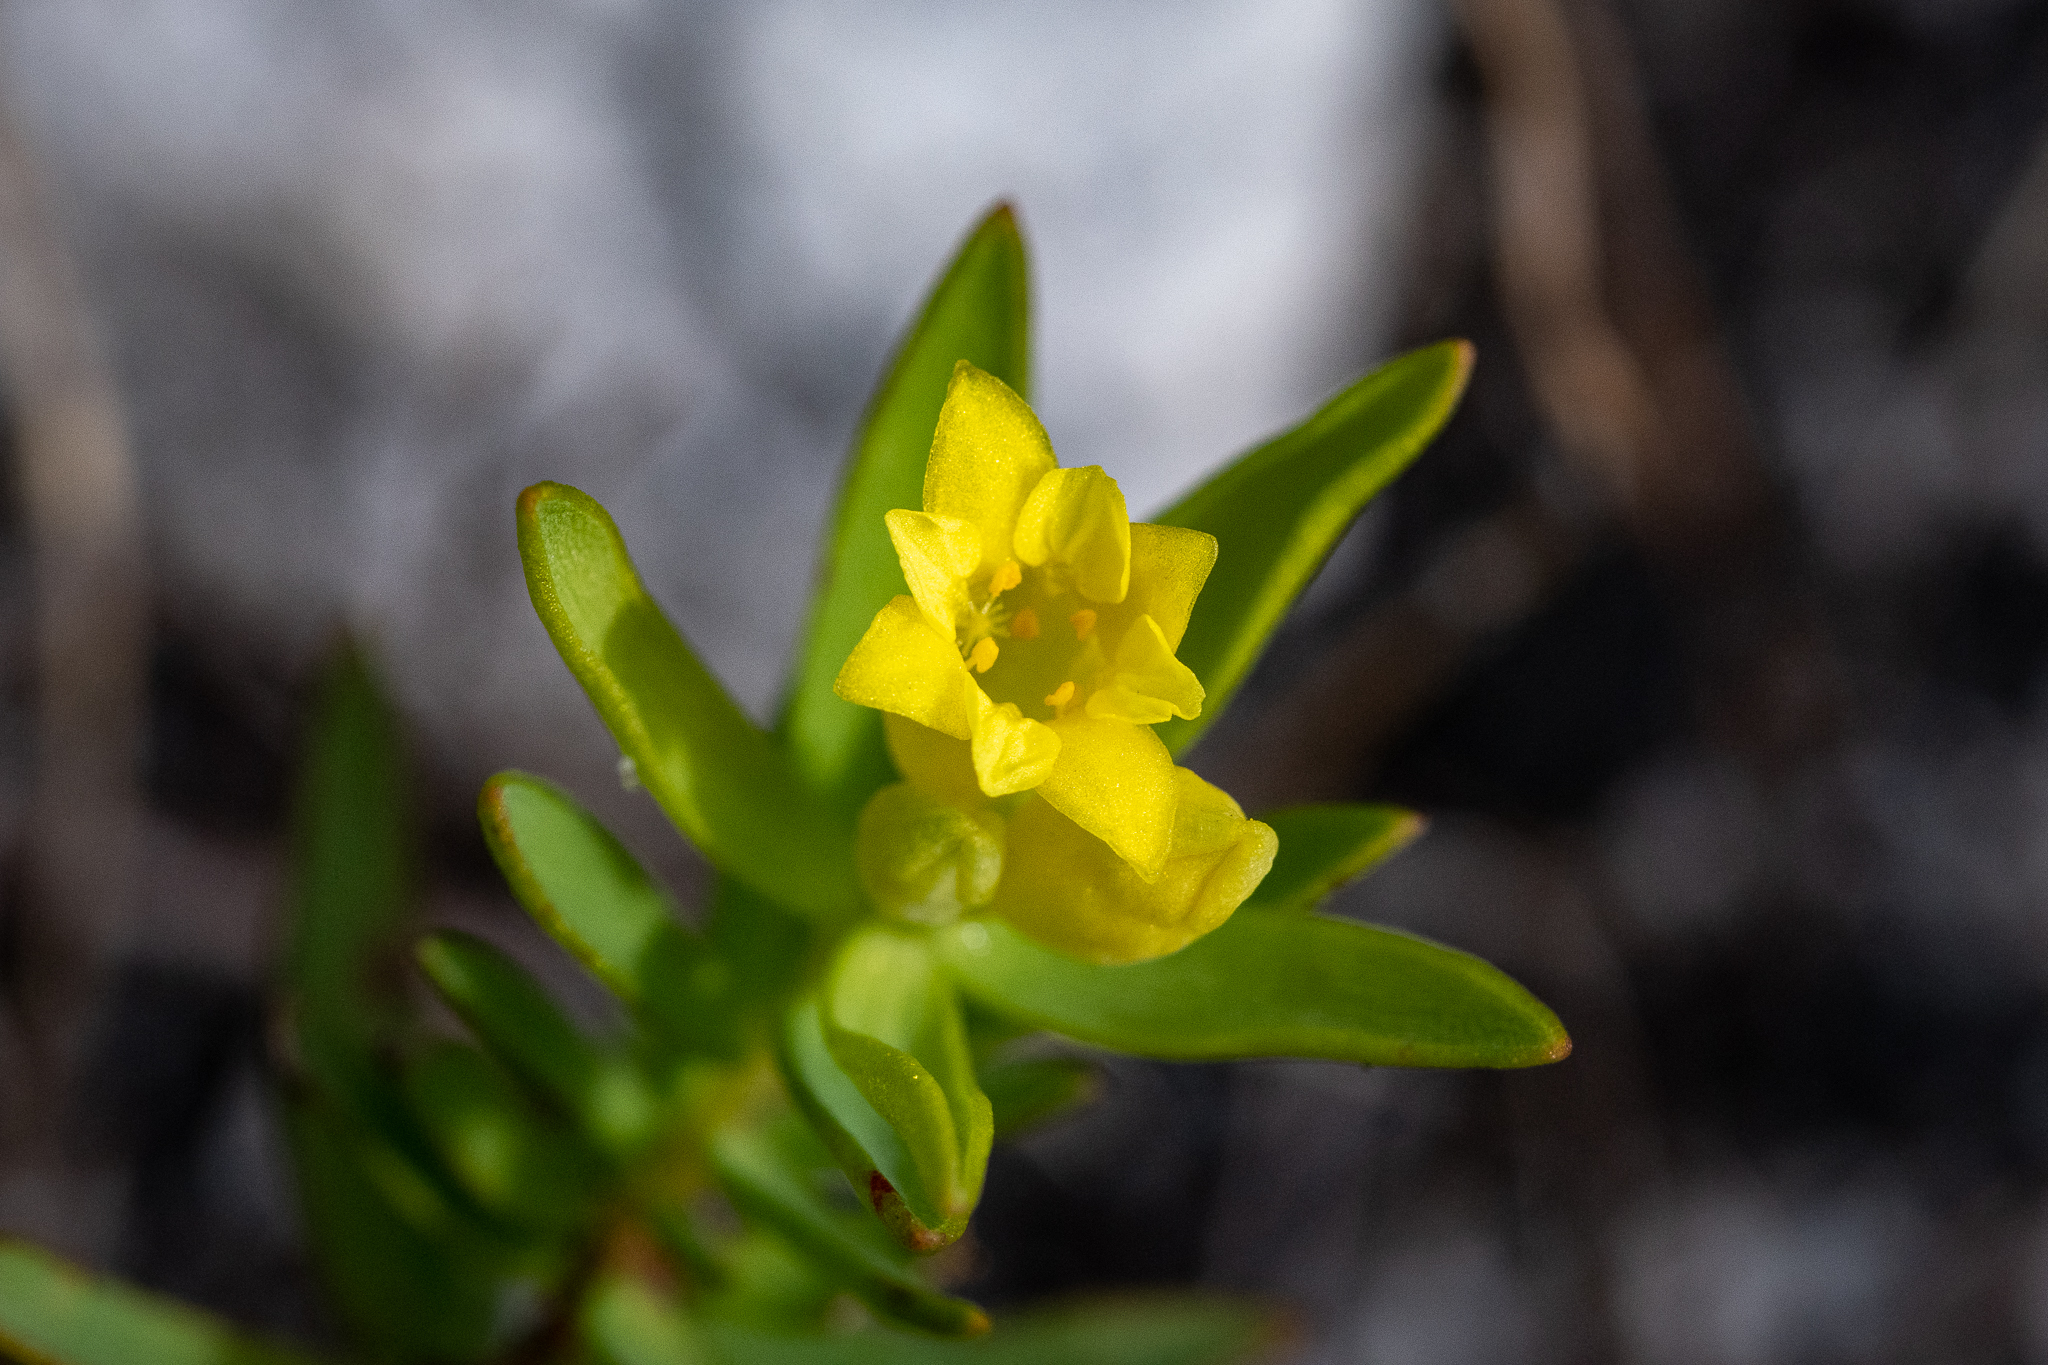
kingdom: Plantae
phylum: Tracheophyta
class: Magnoliopsida
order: Malvales
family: Thymelaeaceae
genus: Gnidia
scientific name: Gnidia juniperifolia
